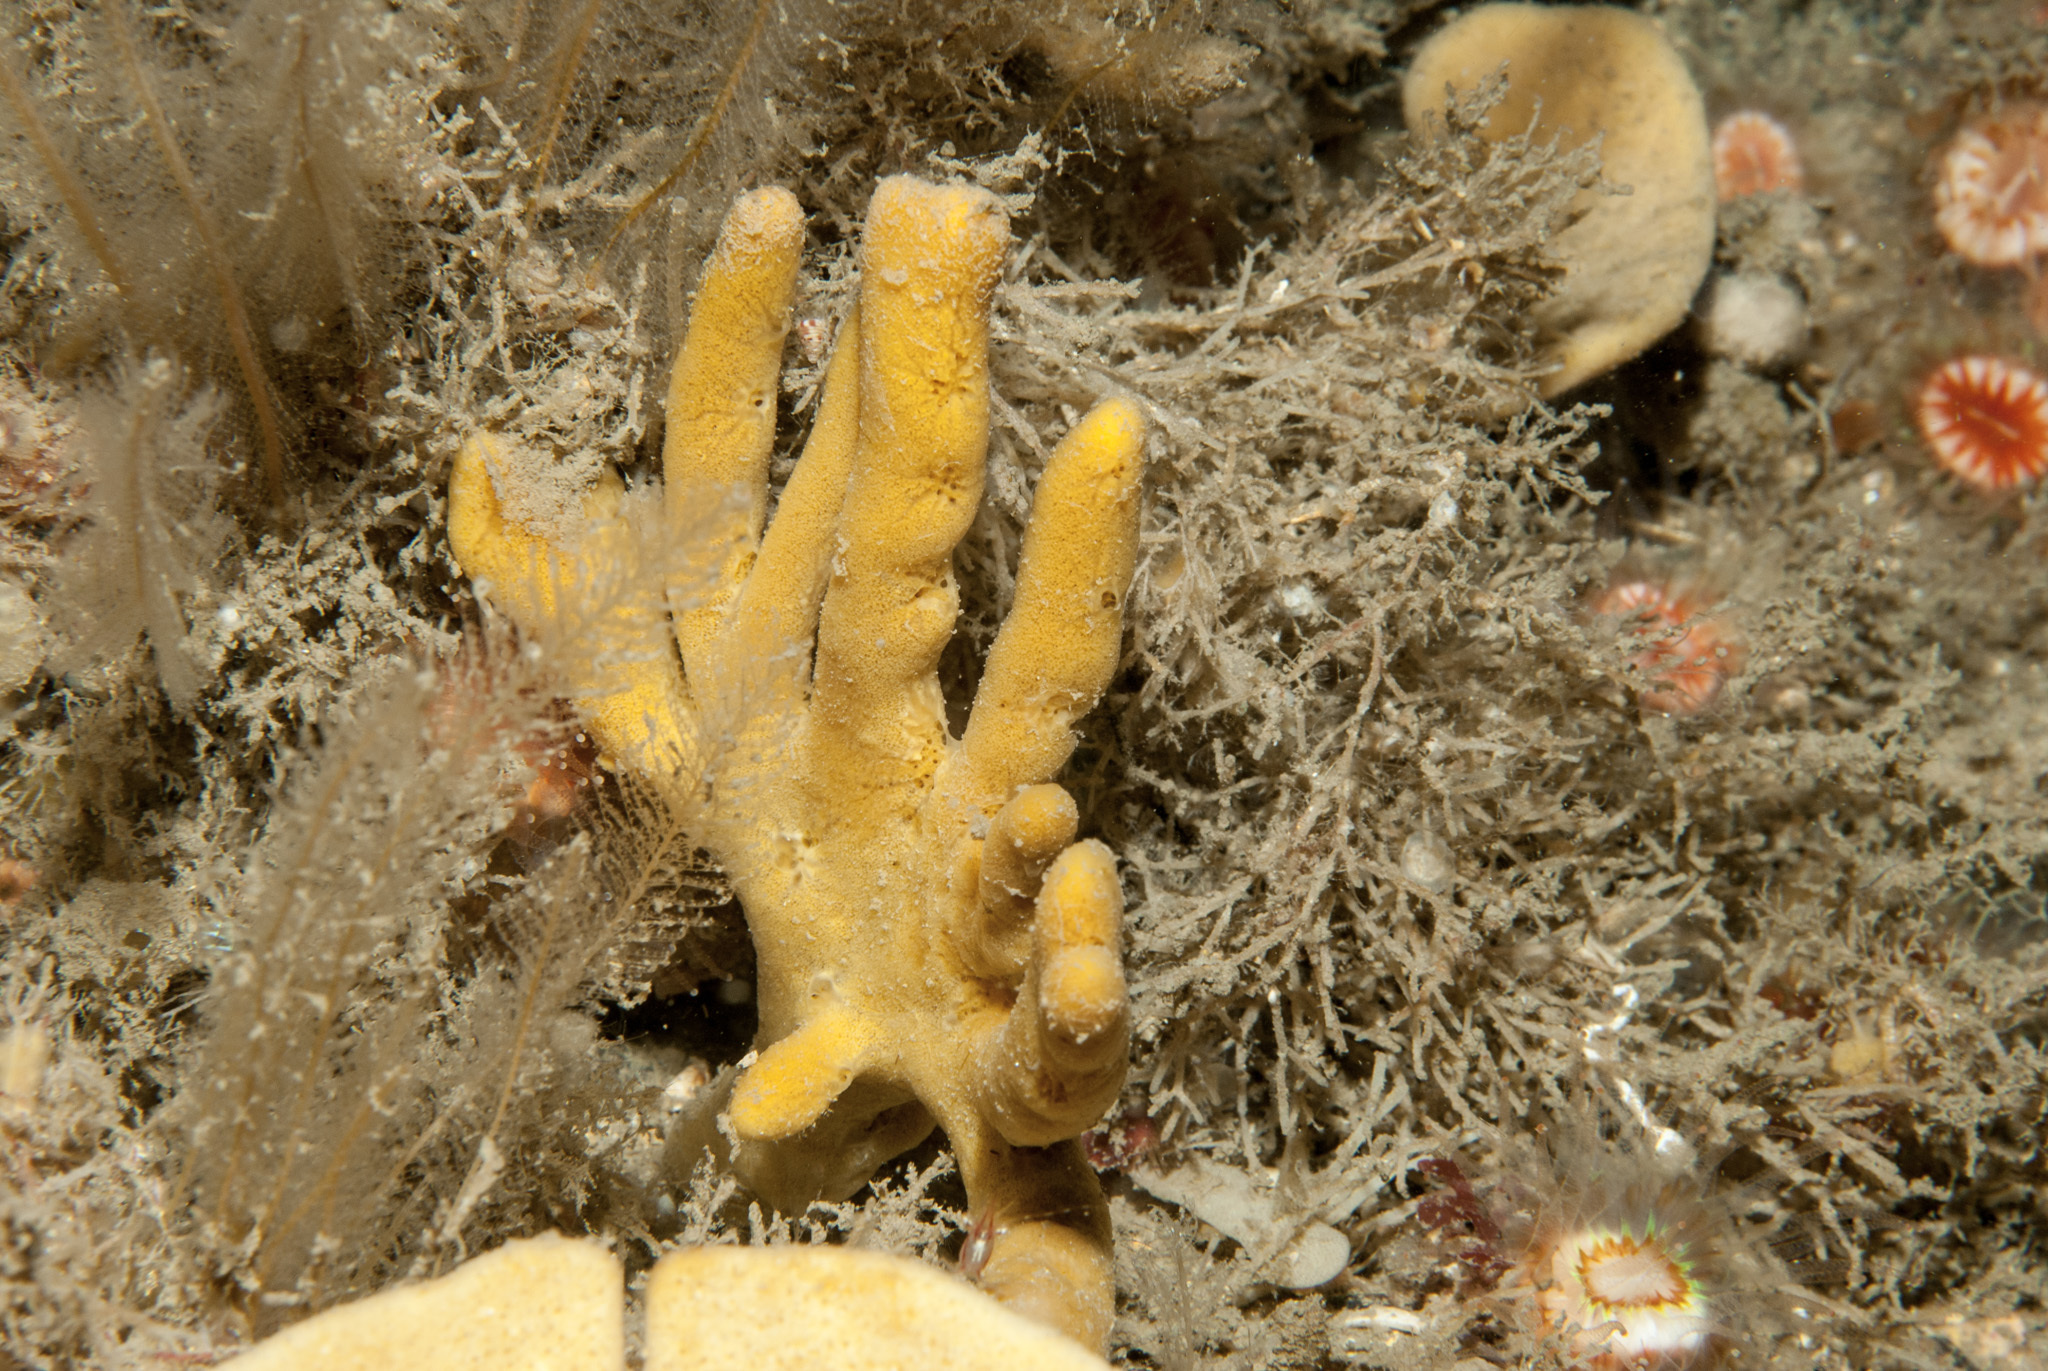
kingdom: Animalia
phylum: Porifera
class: Demospongiae
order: Axinellida
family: Axinellidae
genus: Axinella
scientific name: Axinella dissimilis
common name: Branching sponge
